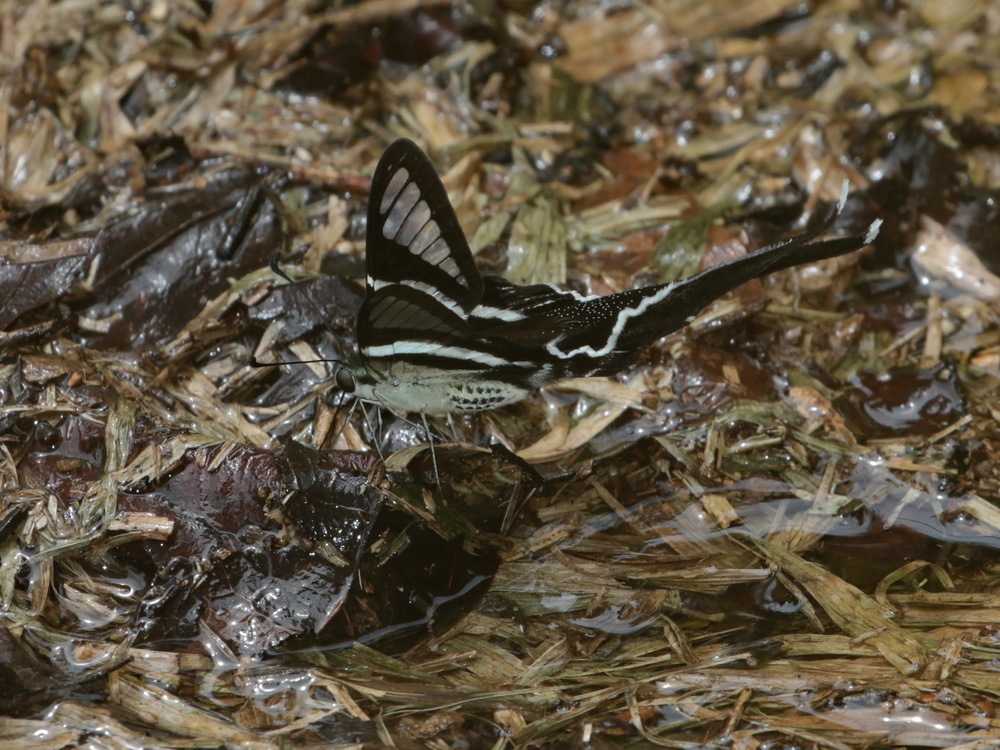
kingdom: Animalia
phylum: Arthropoda
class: Insecta
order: Lepidoptera
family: Papilionidae
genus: Lamproptera
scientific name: Lamproptera curius
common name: White dragontail
